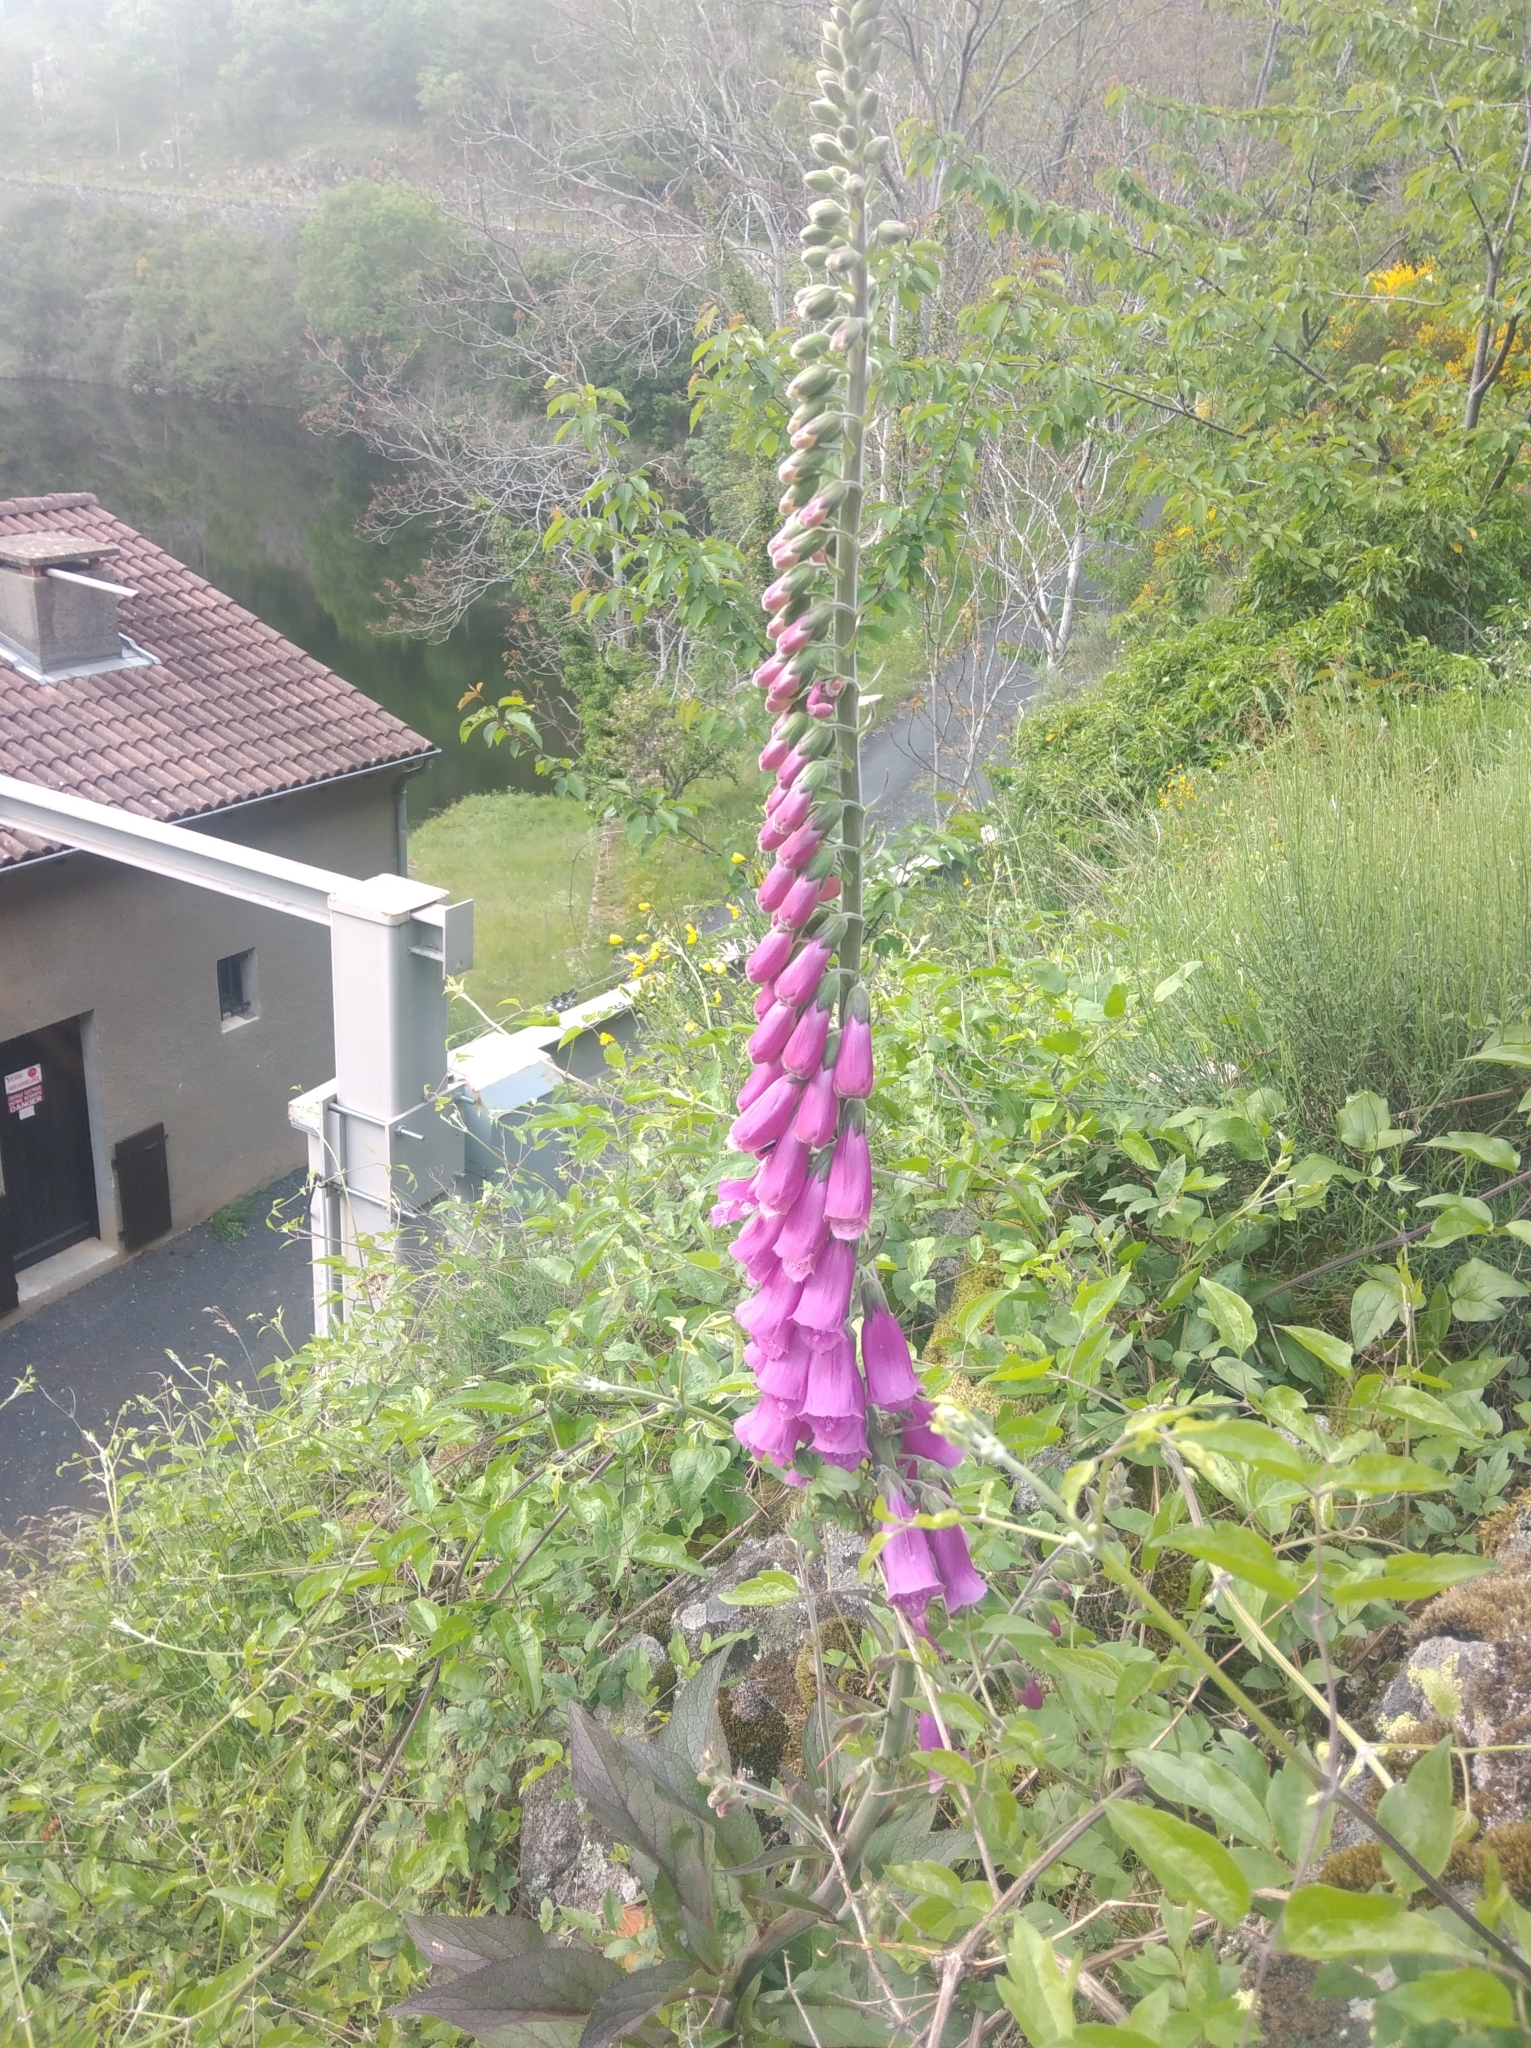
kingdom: Plantae
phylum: Tracheophyta
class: Magnoliopsida
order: Lamiales
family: Plantaginaceae
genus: Digitalis
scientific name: Digitalis purpurea
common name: Foxglove
